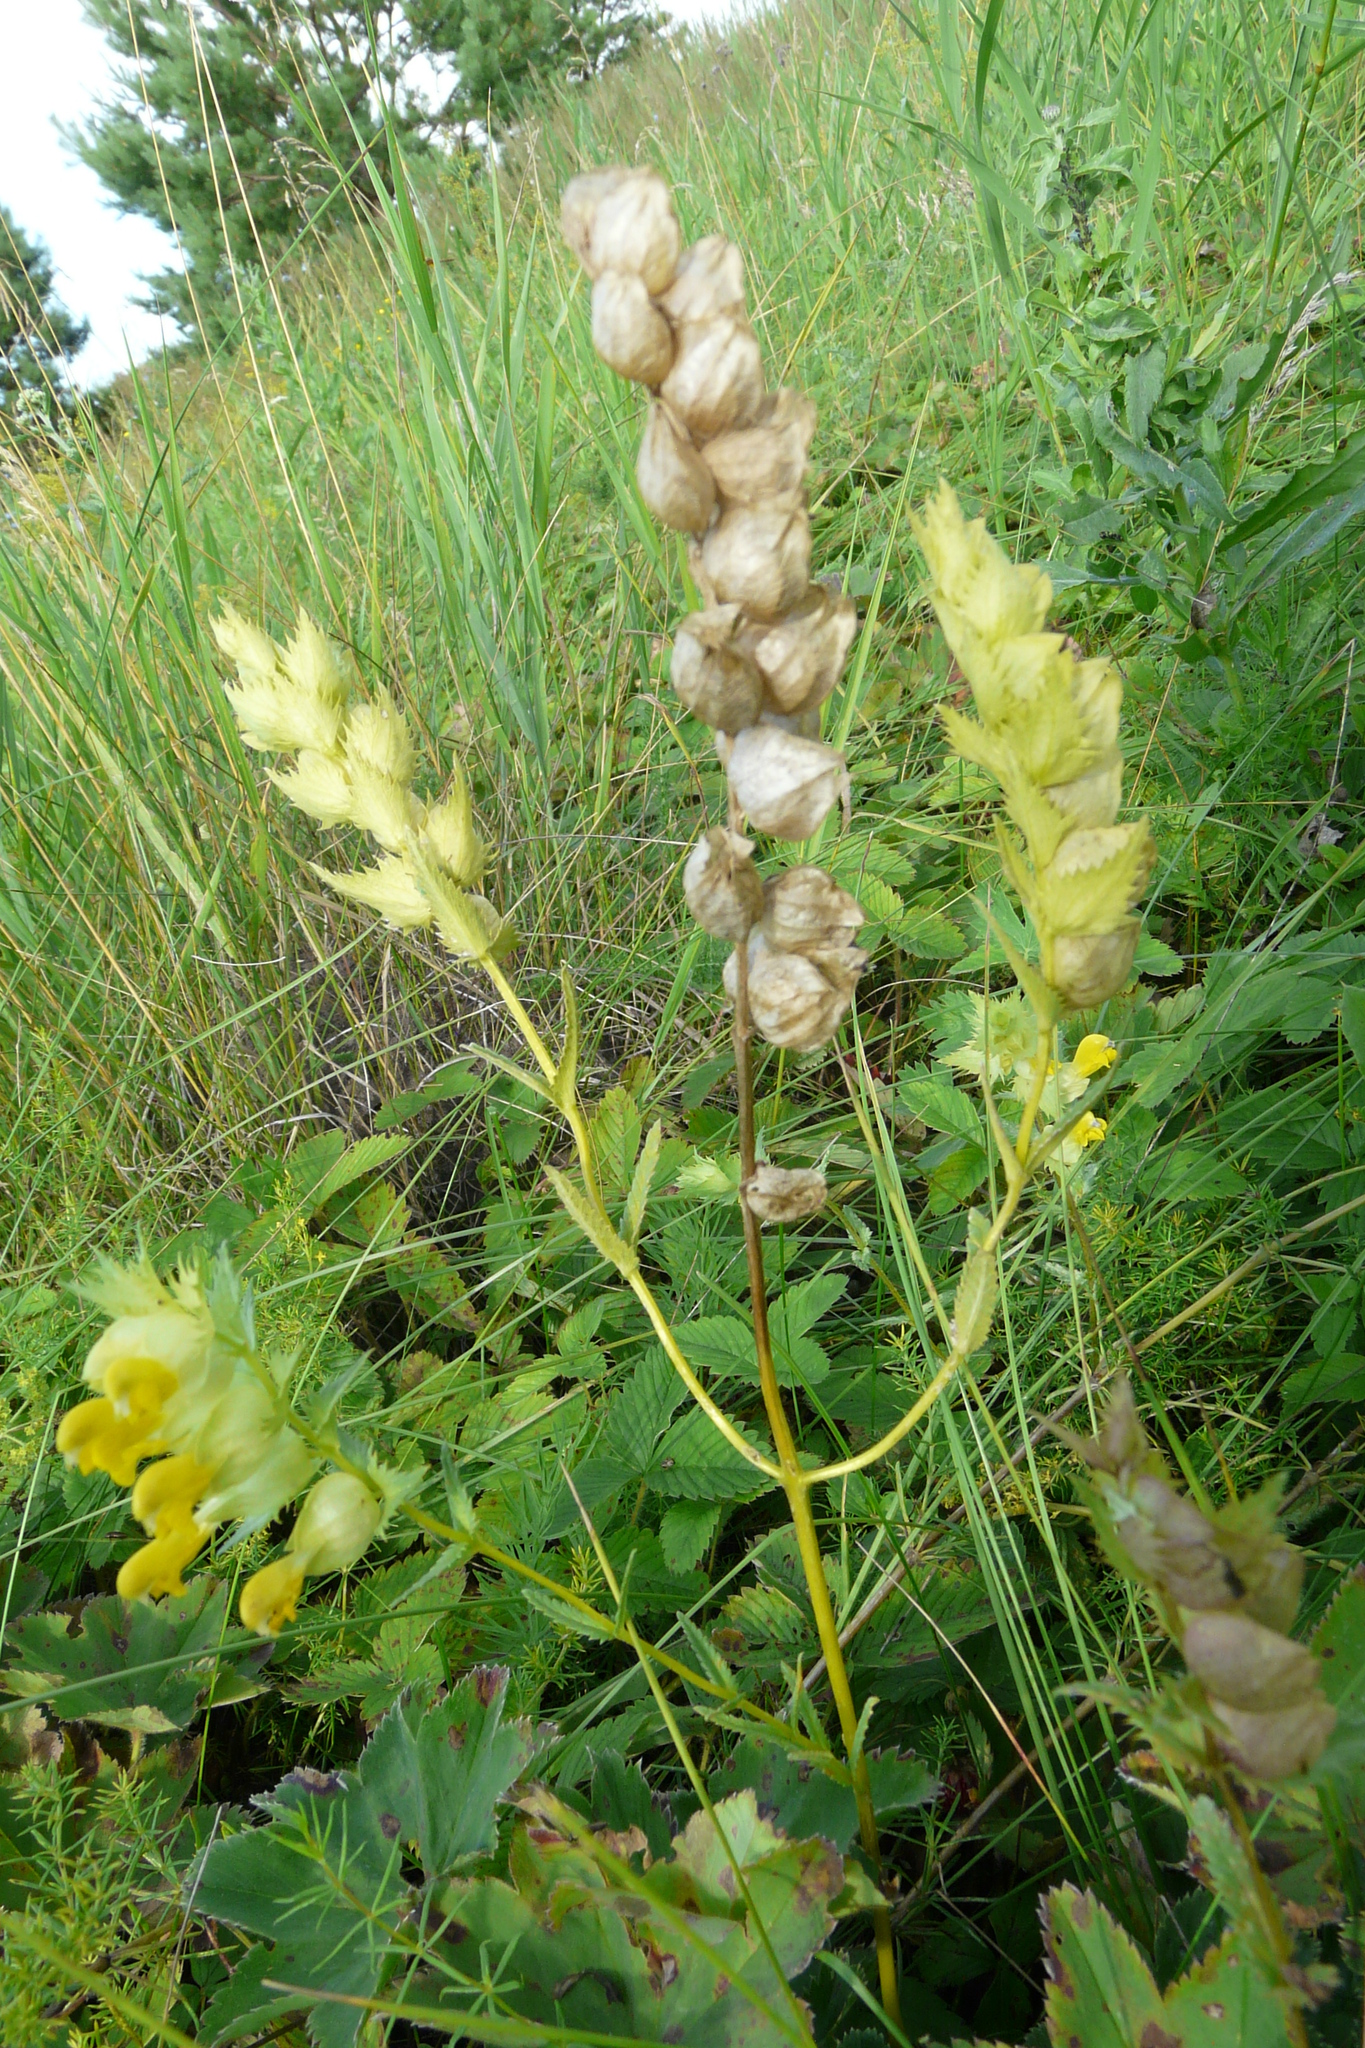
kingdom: Plantae
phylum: Tracheophyta
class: Magnoliopsida
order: Lamiales
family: Orobanchaceae
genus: Rhinanthus
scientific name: Rhinanthus serotinus
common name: Late-flowering yellow rattle
